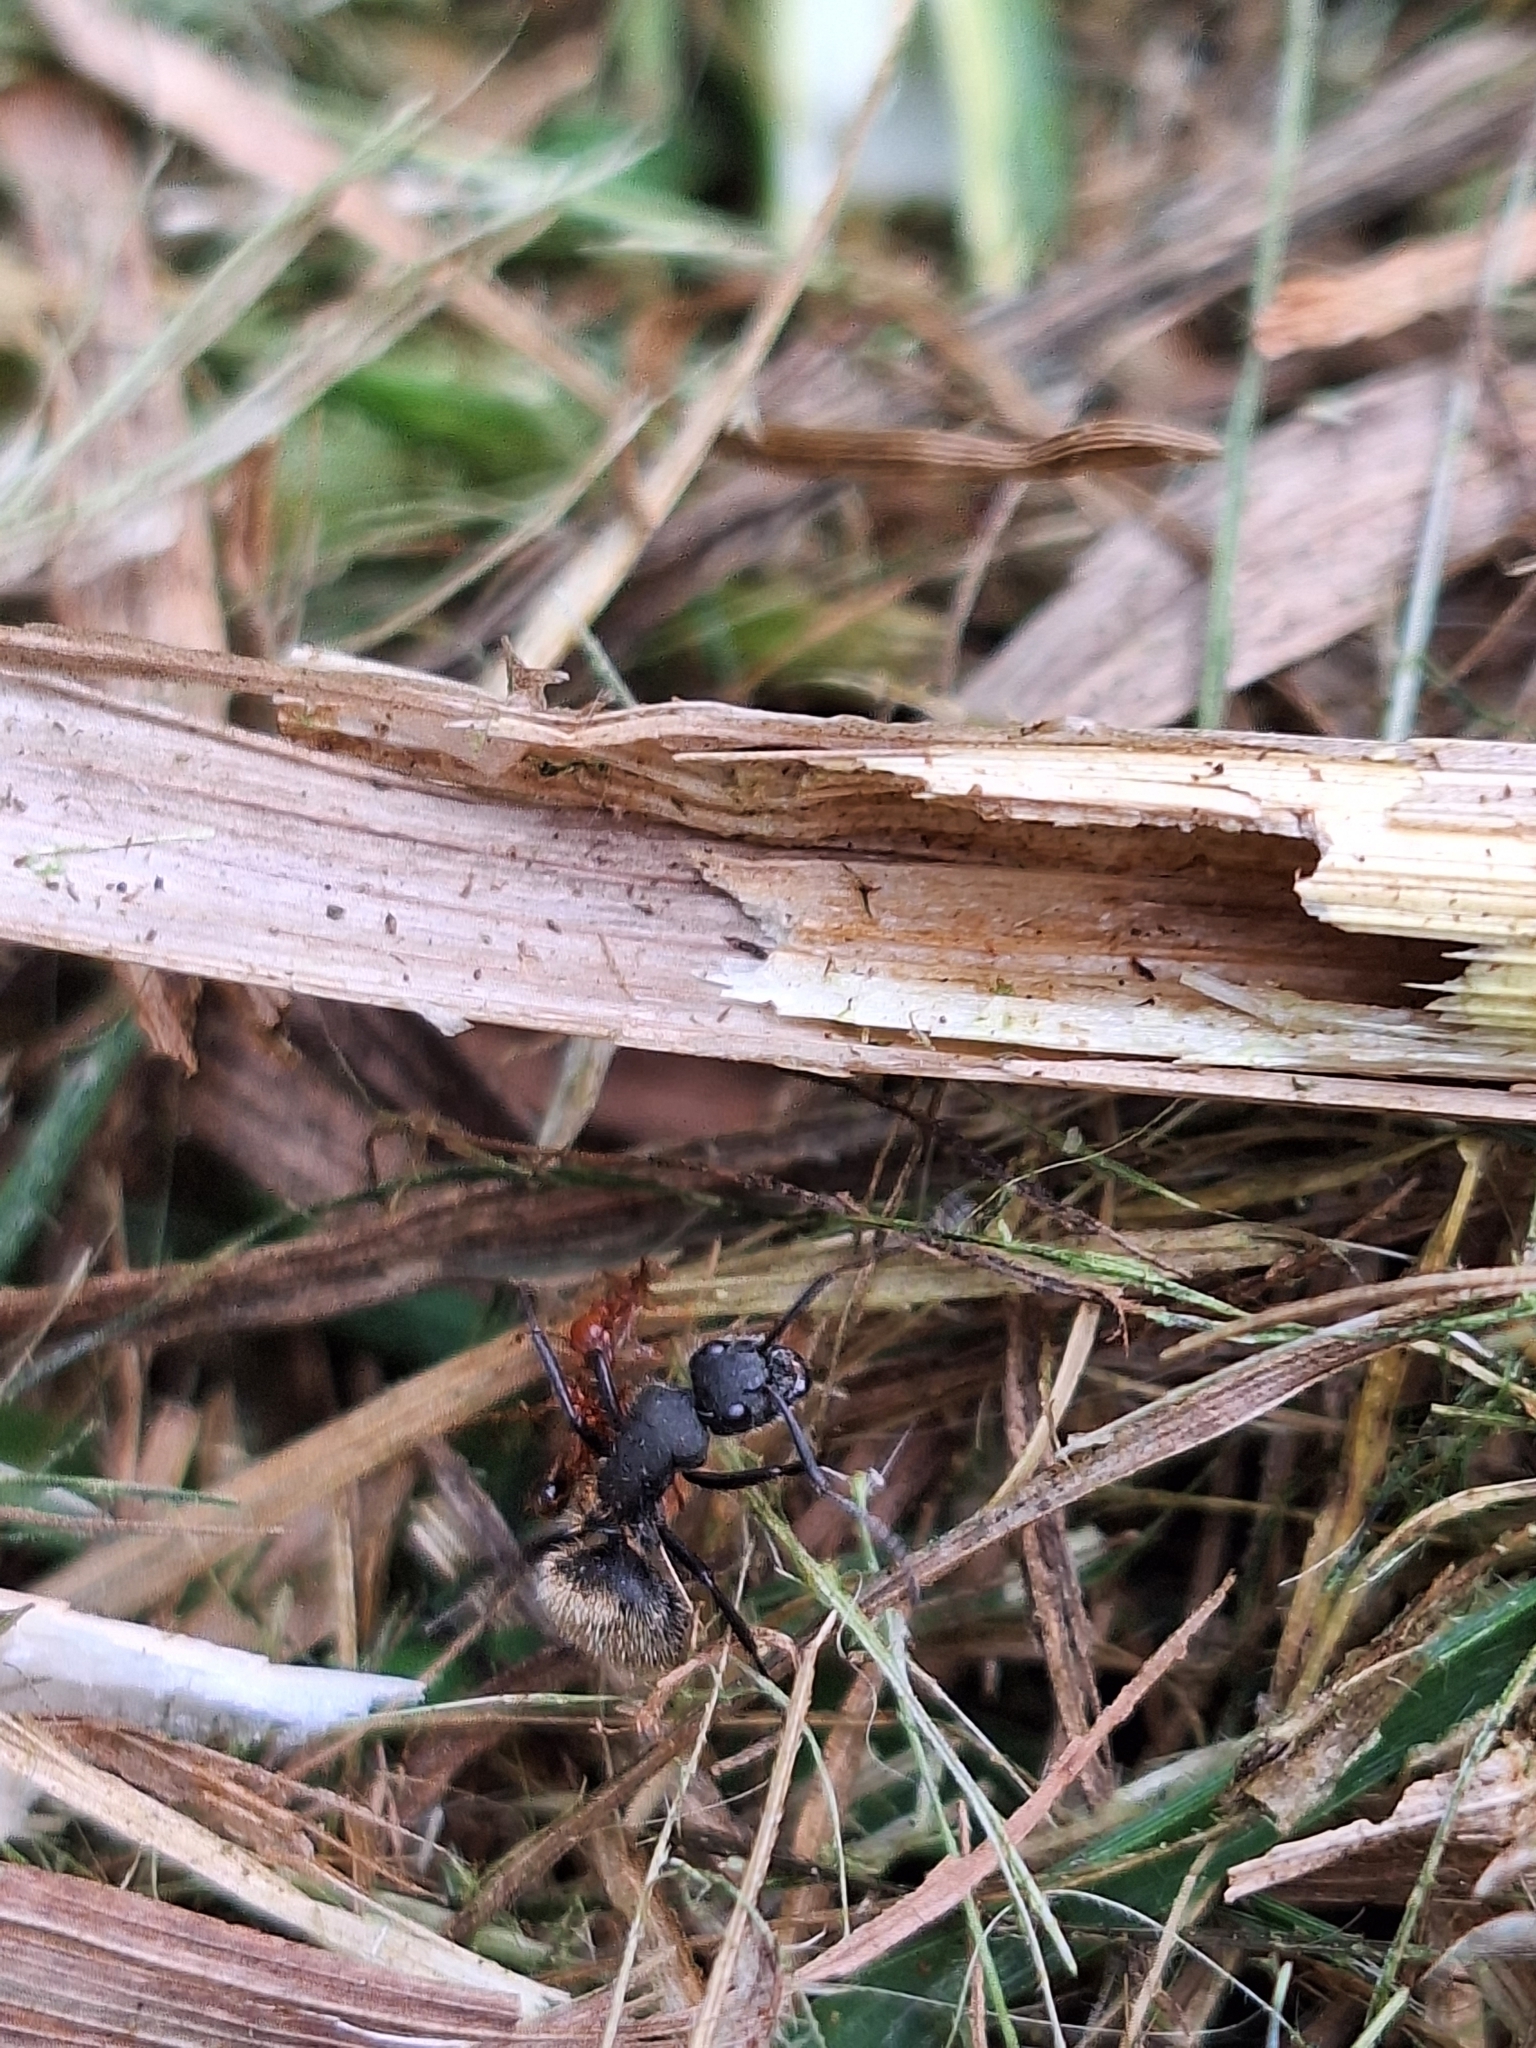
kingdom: Animalia
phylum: Arthropoda
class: Insecta
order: Hymenoptera
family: Formicidae
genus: Camponotus
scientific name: Camponotus mus
